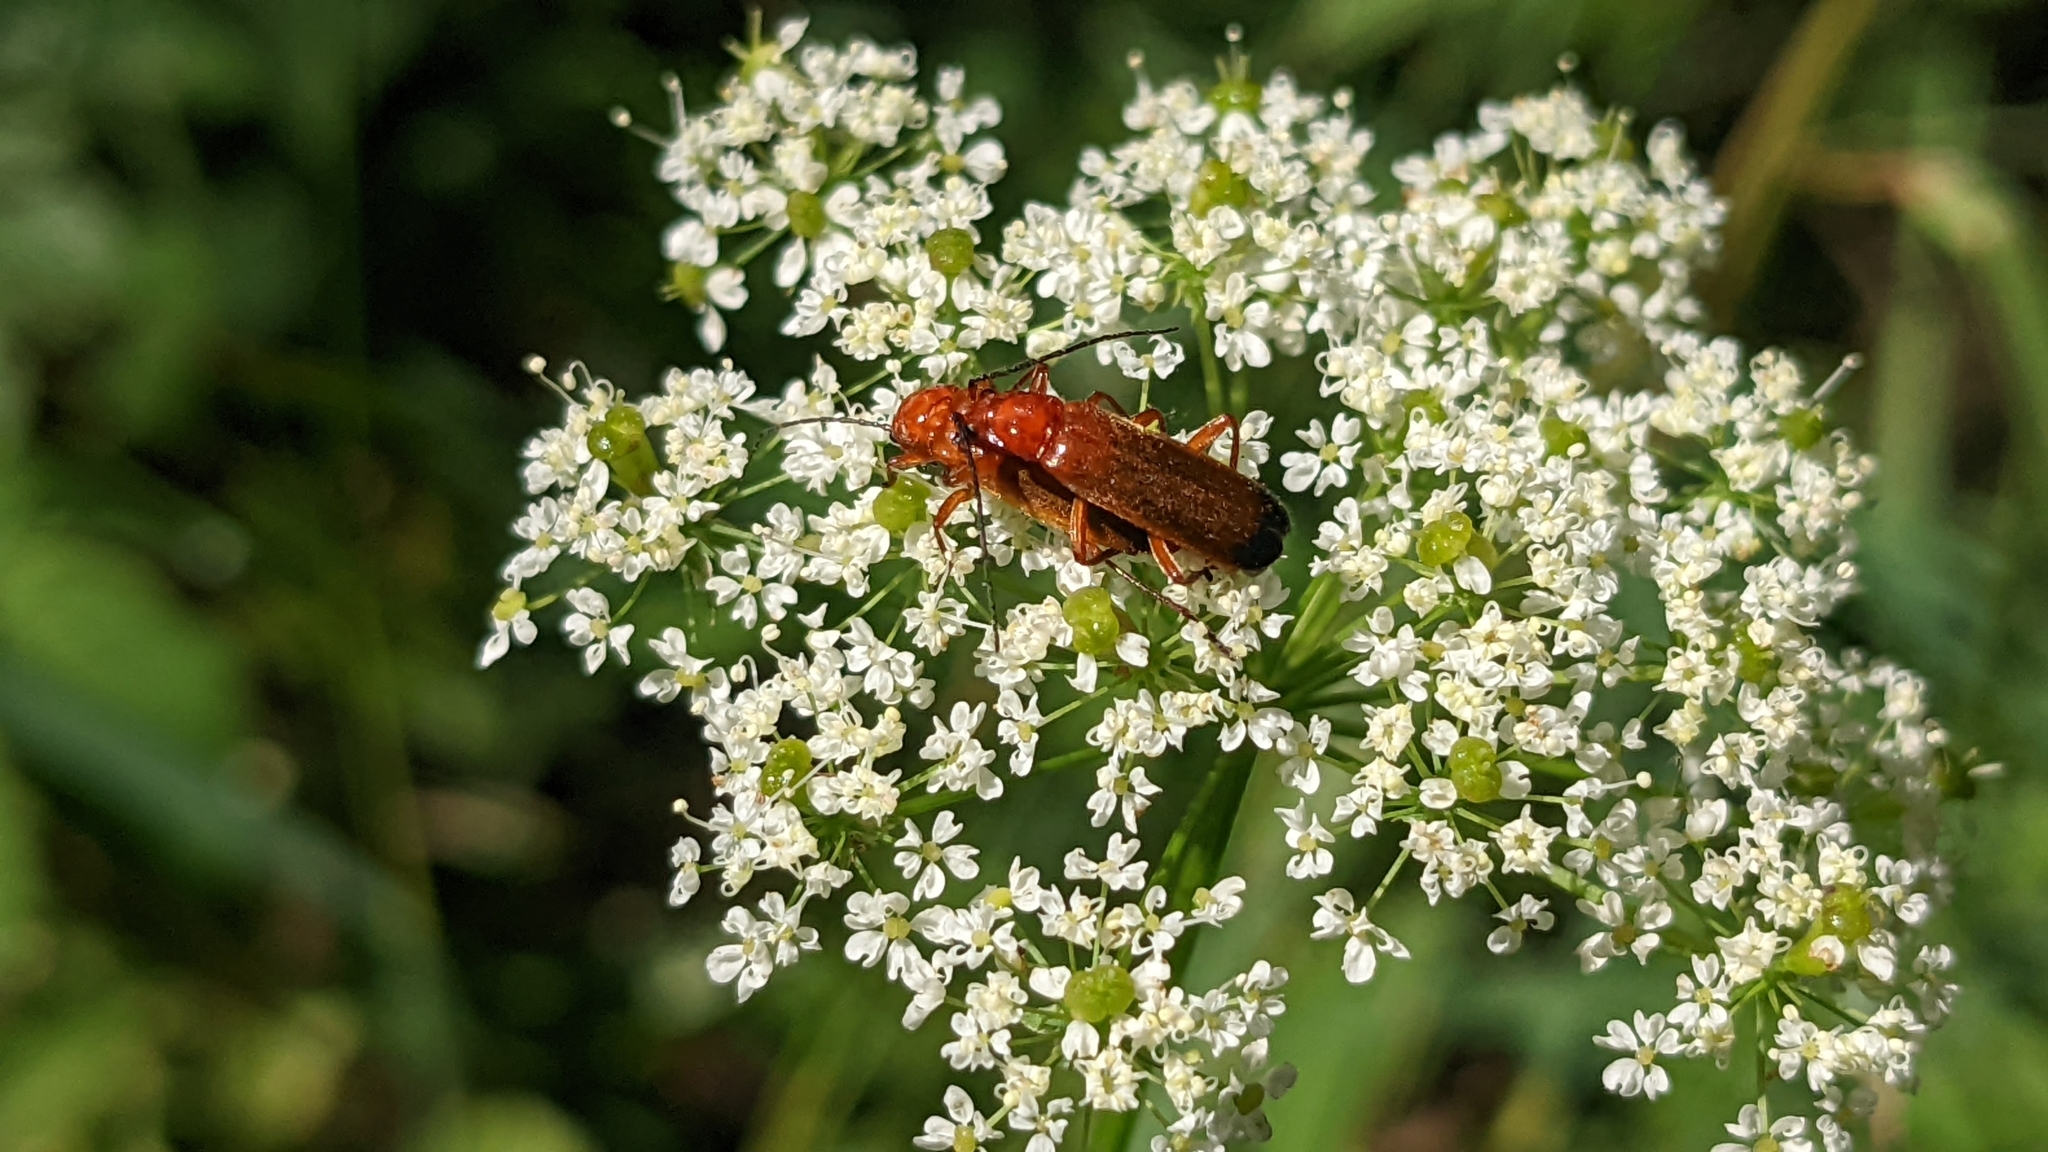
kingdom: Animalia
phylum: Arthropoda
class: Insecta
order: Coleoptera
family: Cantharidae
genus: Rhagonycha
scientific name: Rhagonycha fulva
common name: Common red soldier beetle
